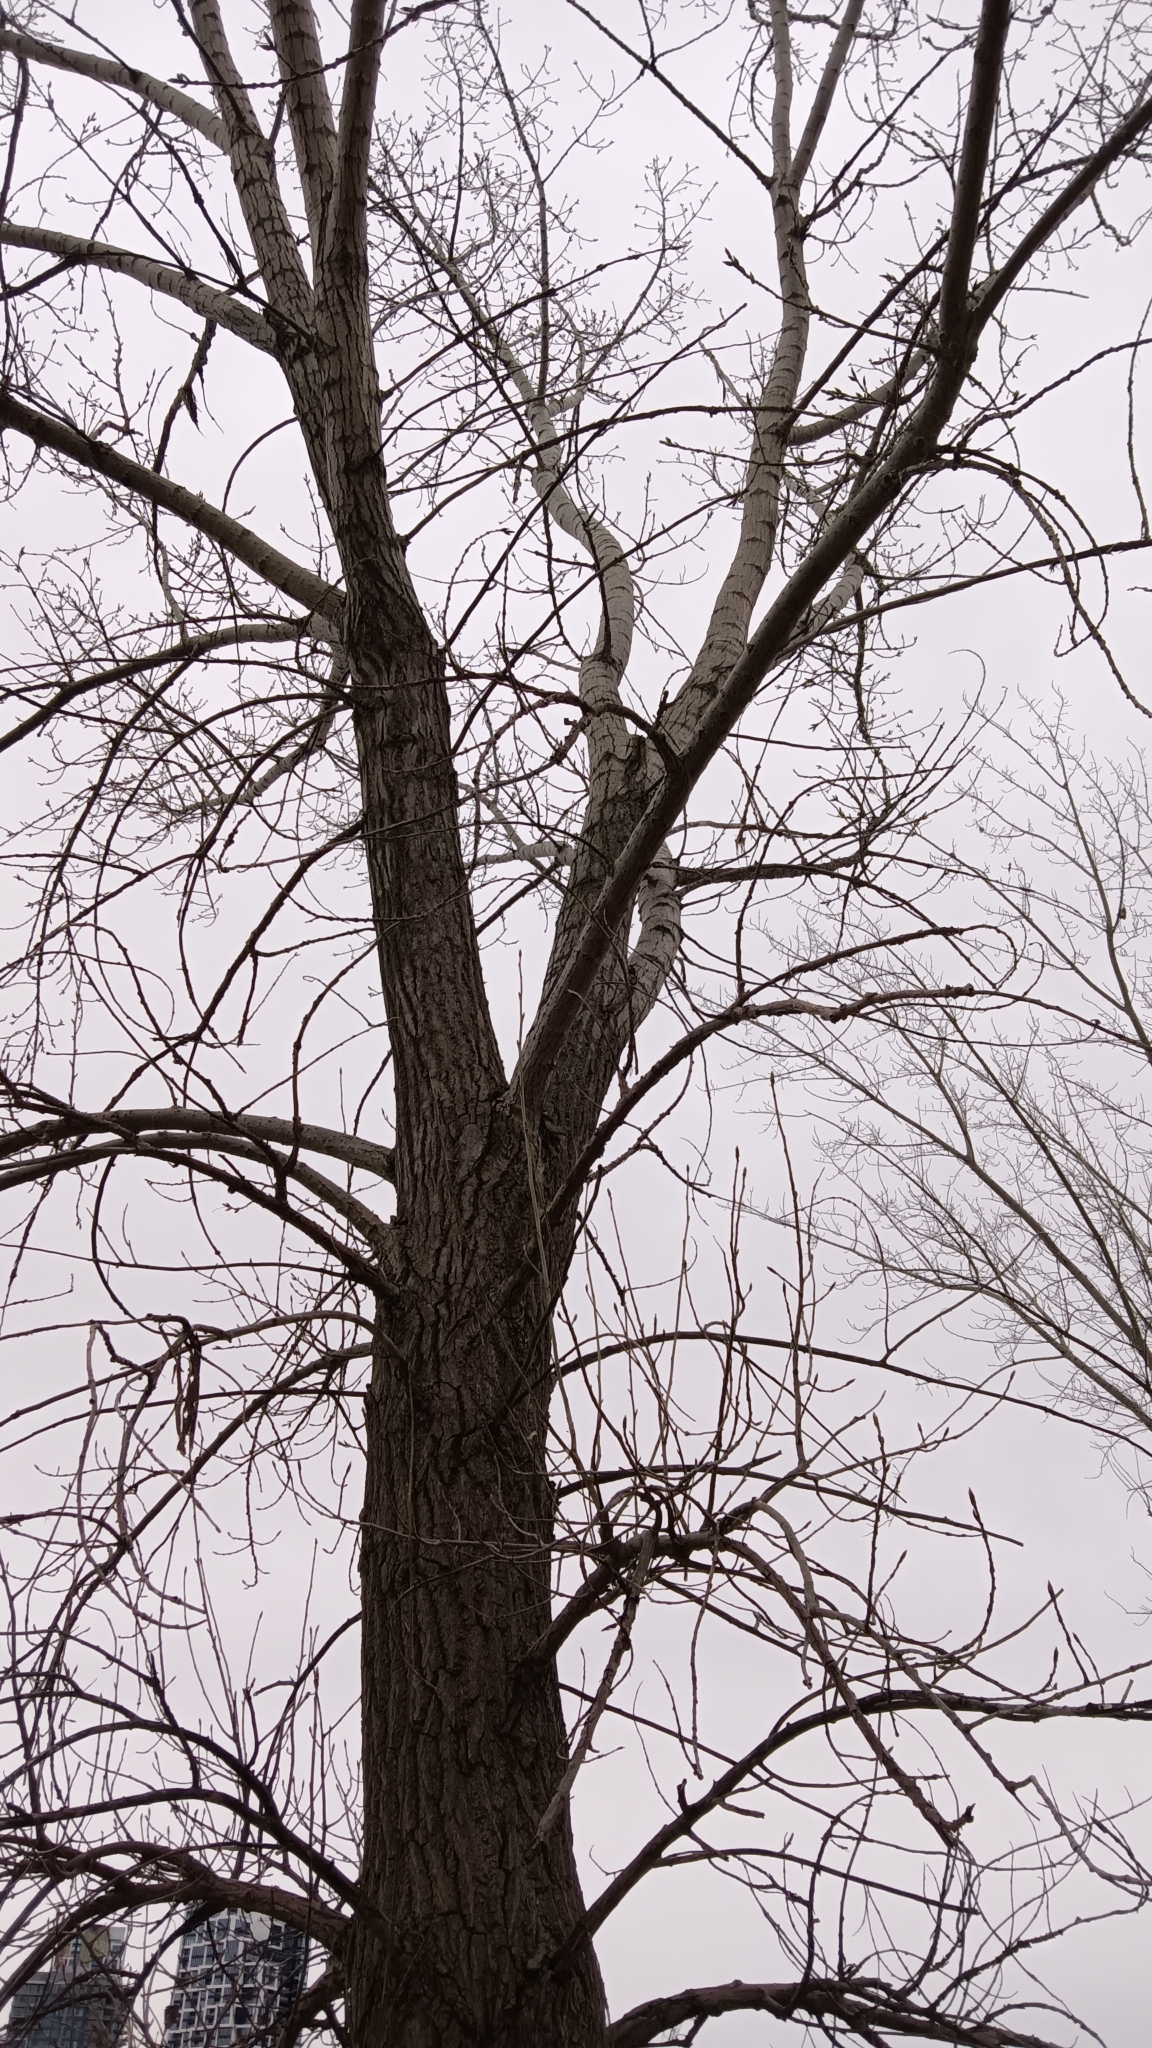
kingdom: Plantae
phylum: Tracheophyta
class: Magnoliopsida
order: Malpighiales
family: Salicaceae
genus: Populus
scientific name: Populus deltoides
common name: Eastern cottonwood
